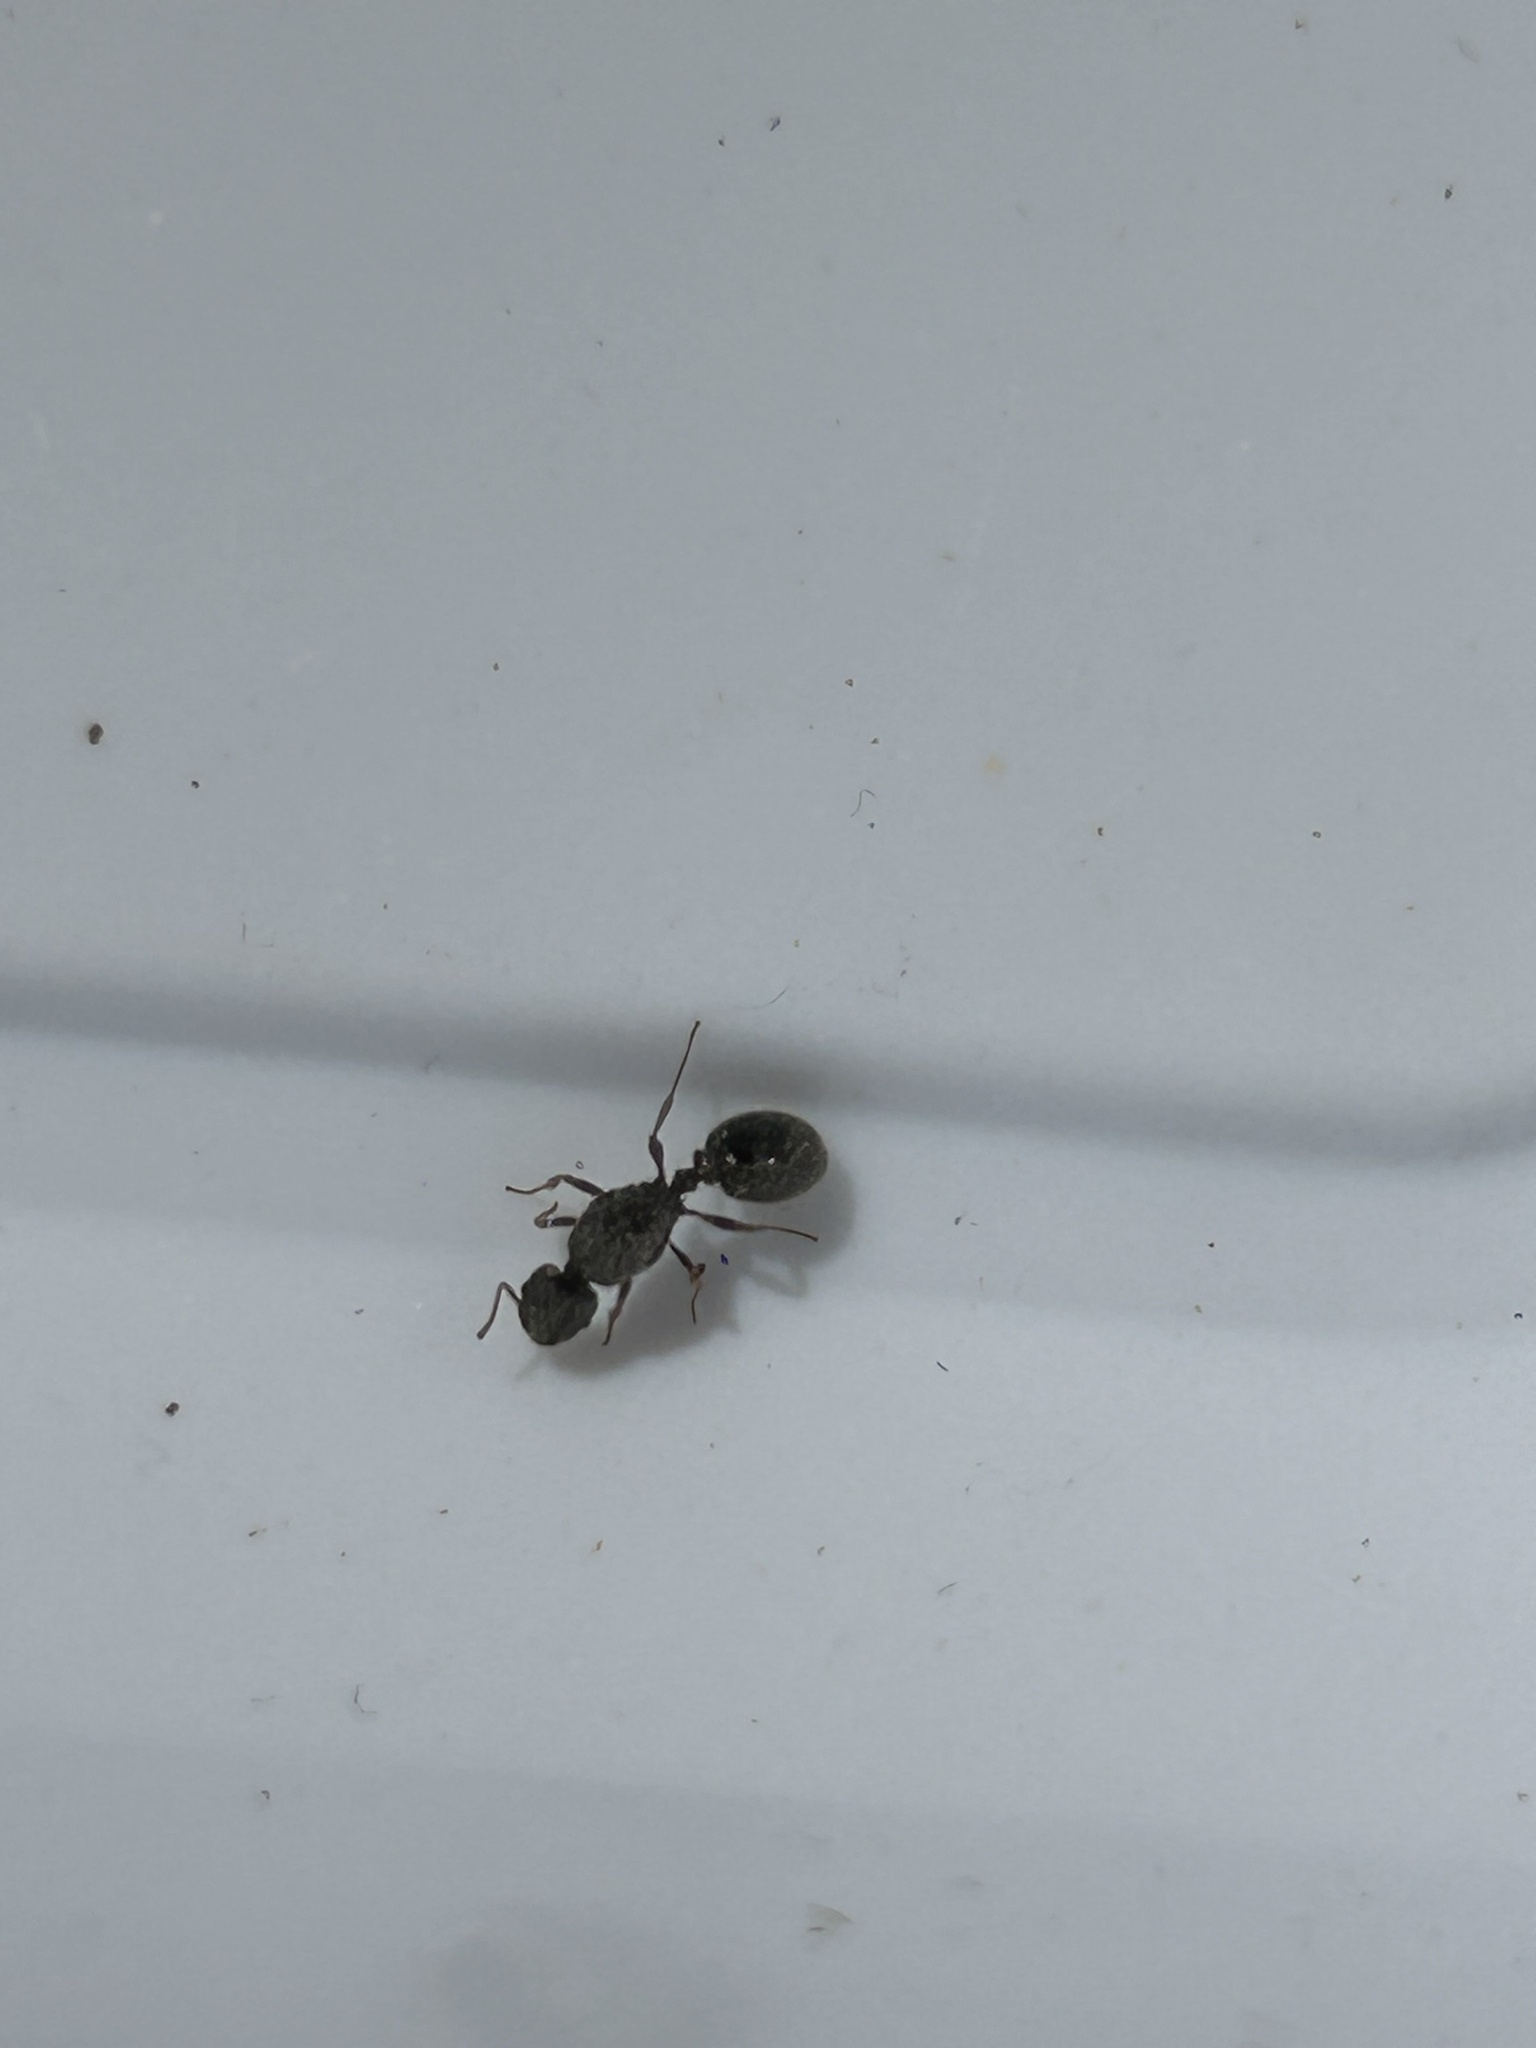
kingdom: Animalia
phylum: Arthropoda
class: Insecta
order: Hymenoptera
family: Formicidae
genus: Tetramorium
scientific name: Tetramorium immigrans
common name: Pavement ant
